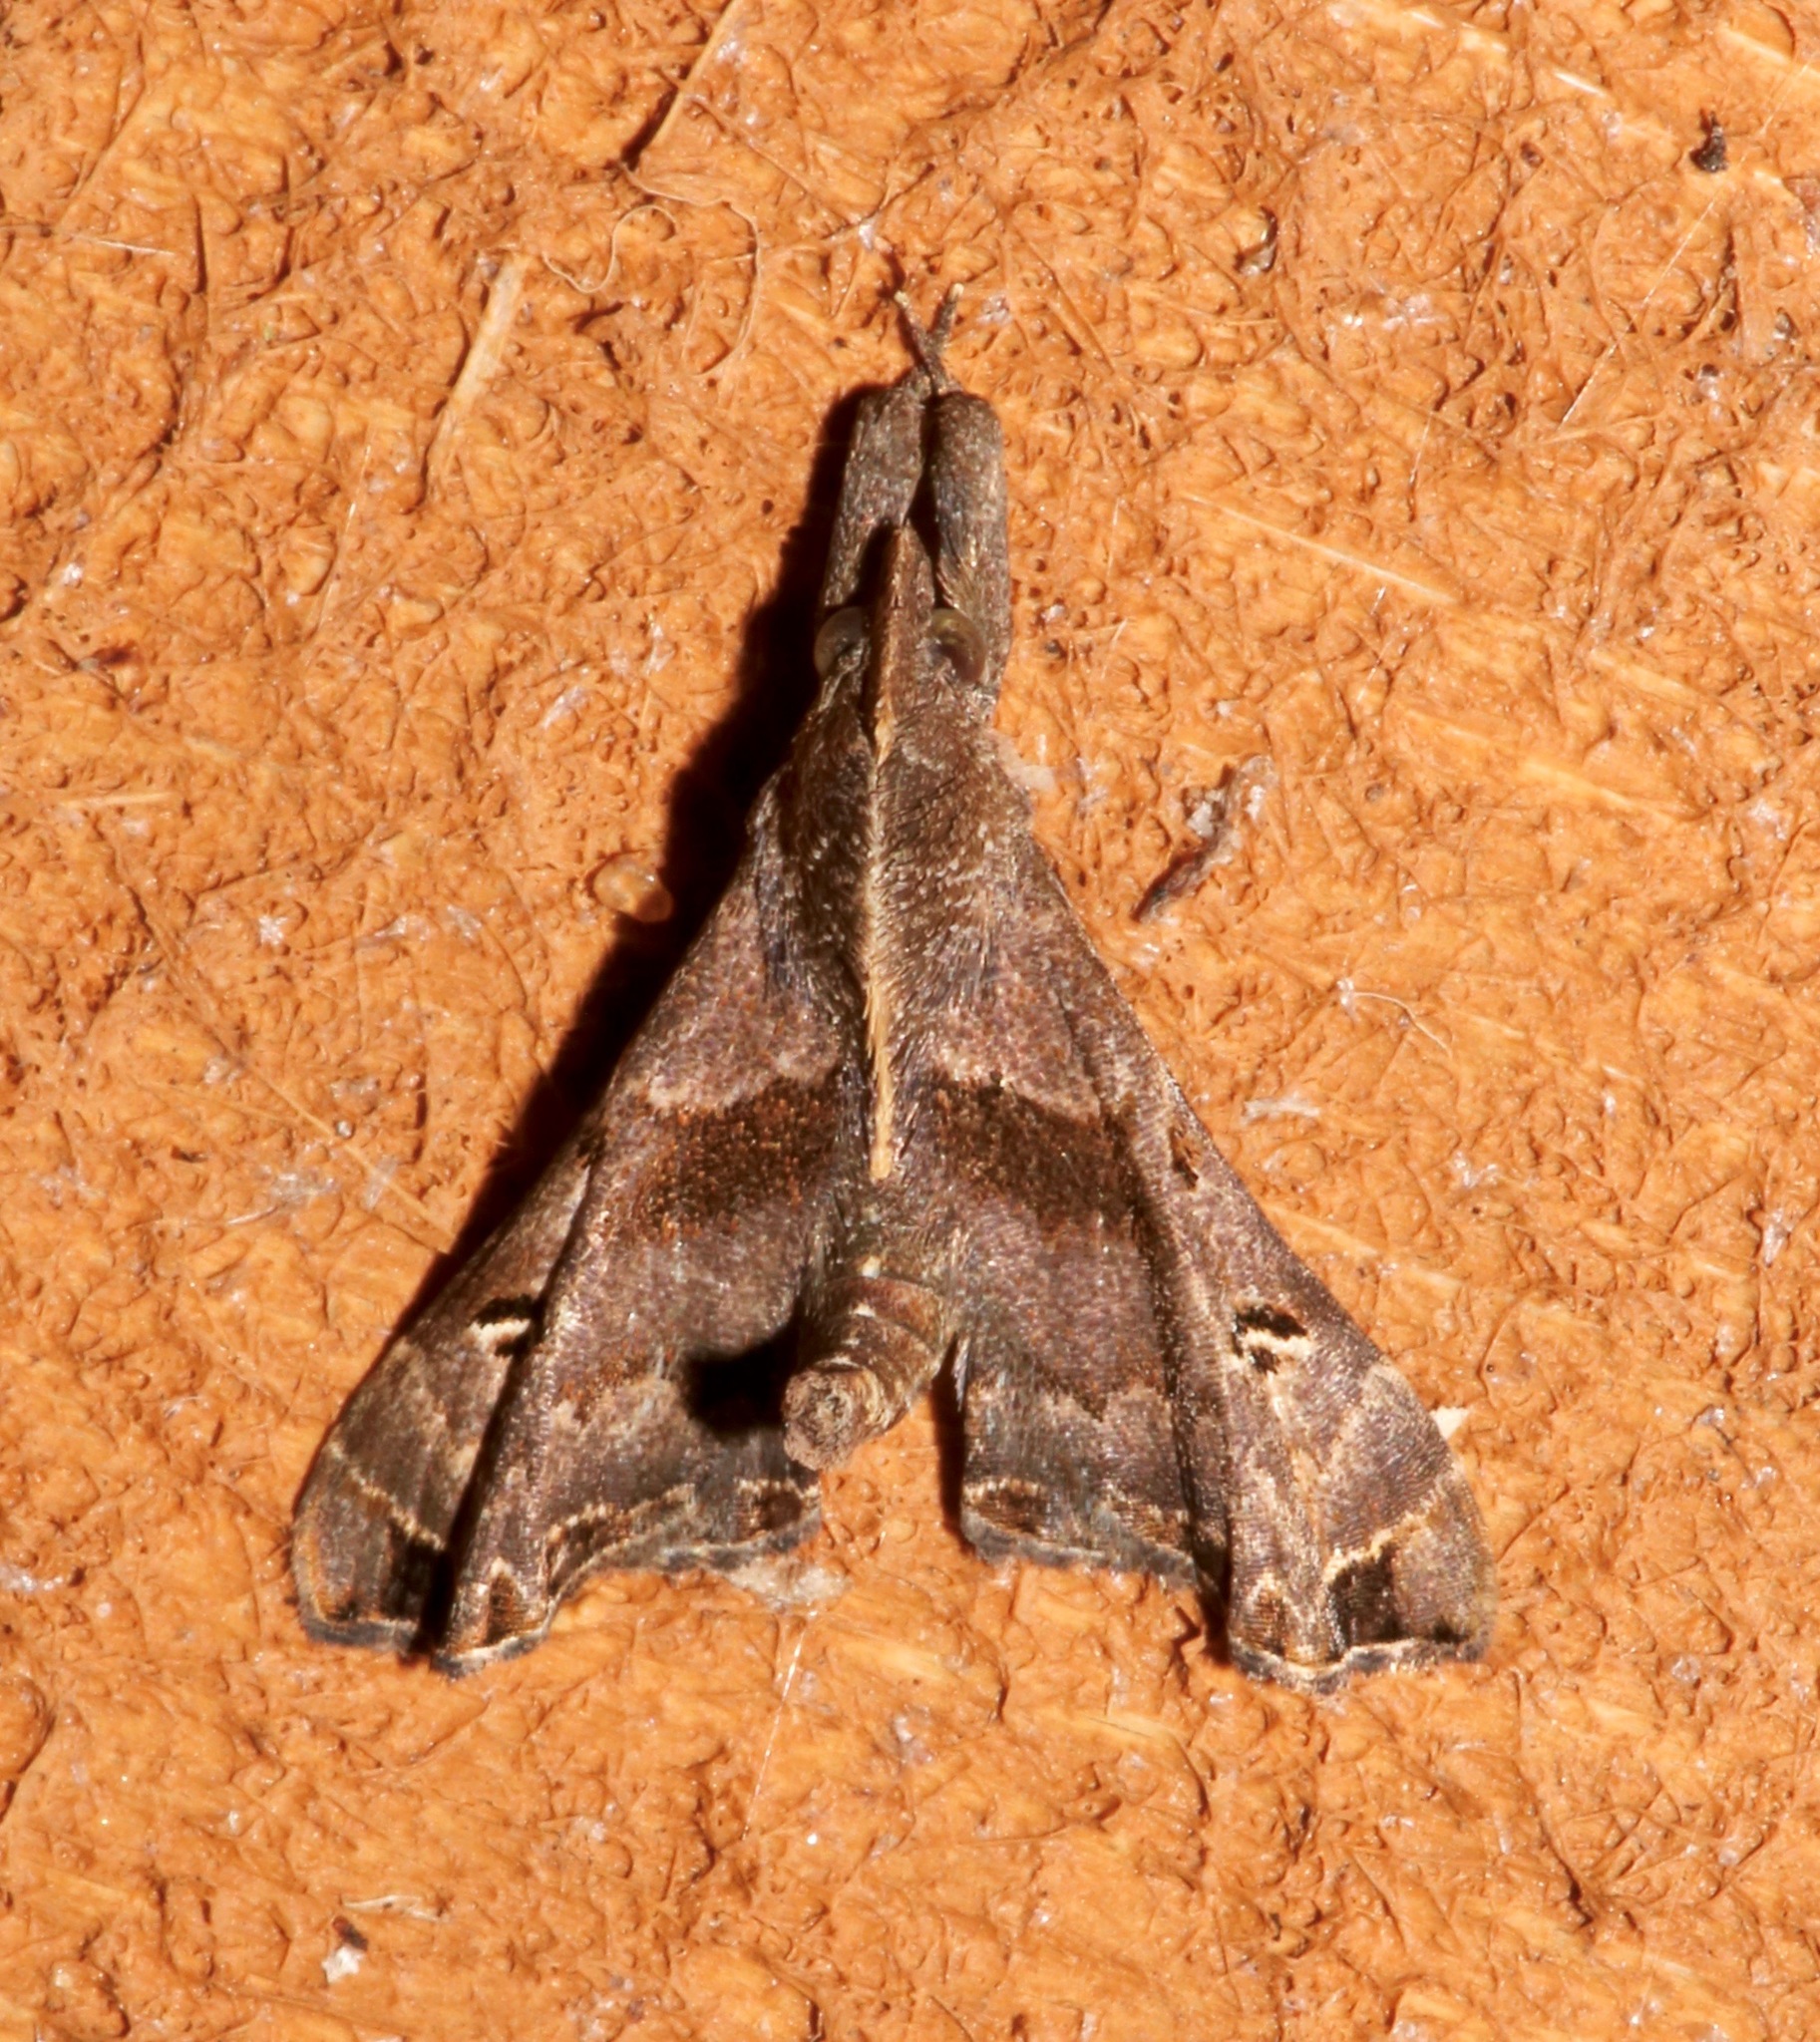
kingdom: Animalia
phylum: Arthropoda
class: Insecta
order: Lepidoptera
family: Erebidae
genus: Palthis
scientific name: Palthis asopialis
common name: Faint-spotted palthis moth
